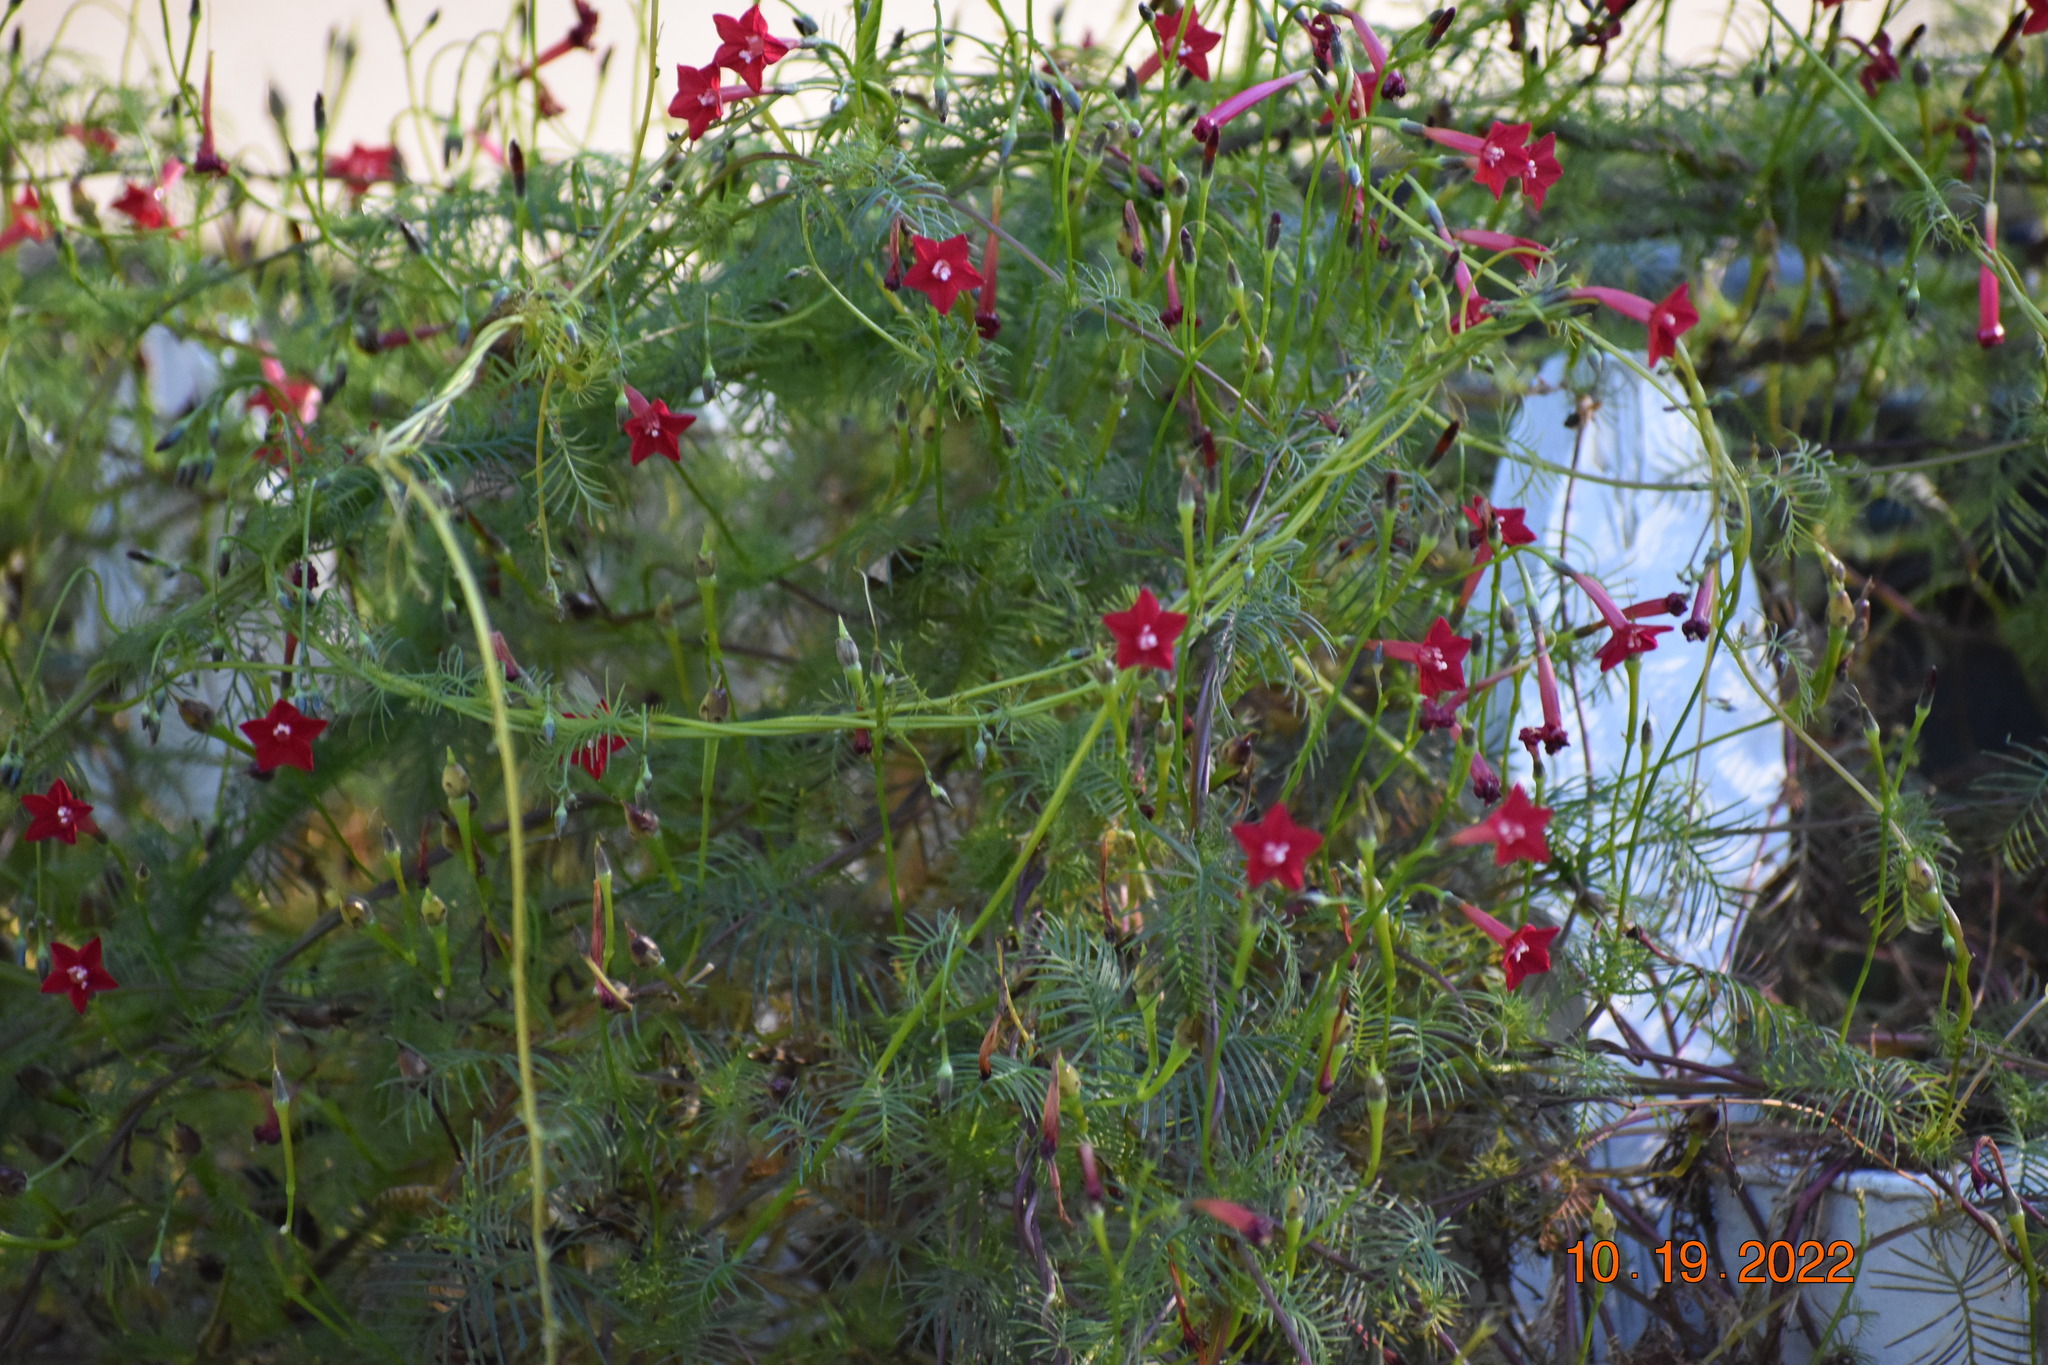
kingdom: Plantae
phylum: Tracheophyta
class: Magnoliopsida
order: Solanales
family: Convolvulaceae
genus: Ipomoea
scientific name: Ipomoea quamoclit
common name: Cypress vine
